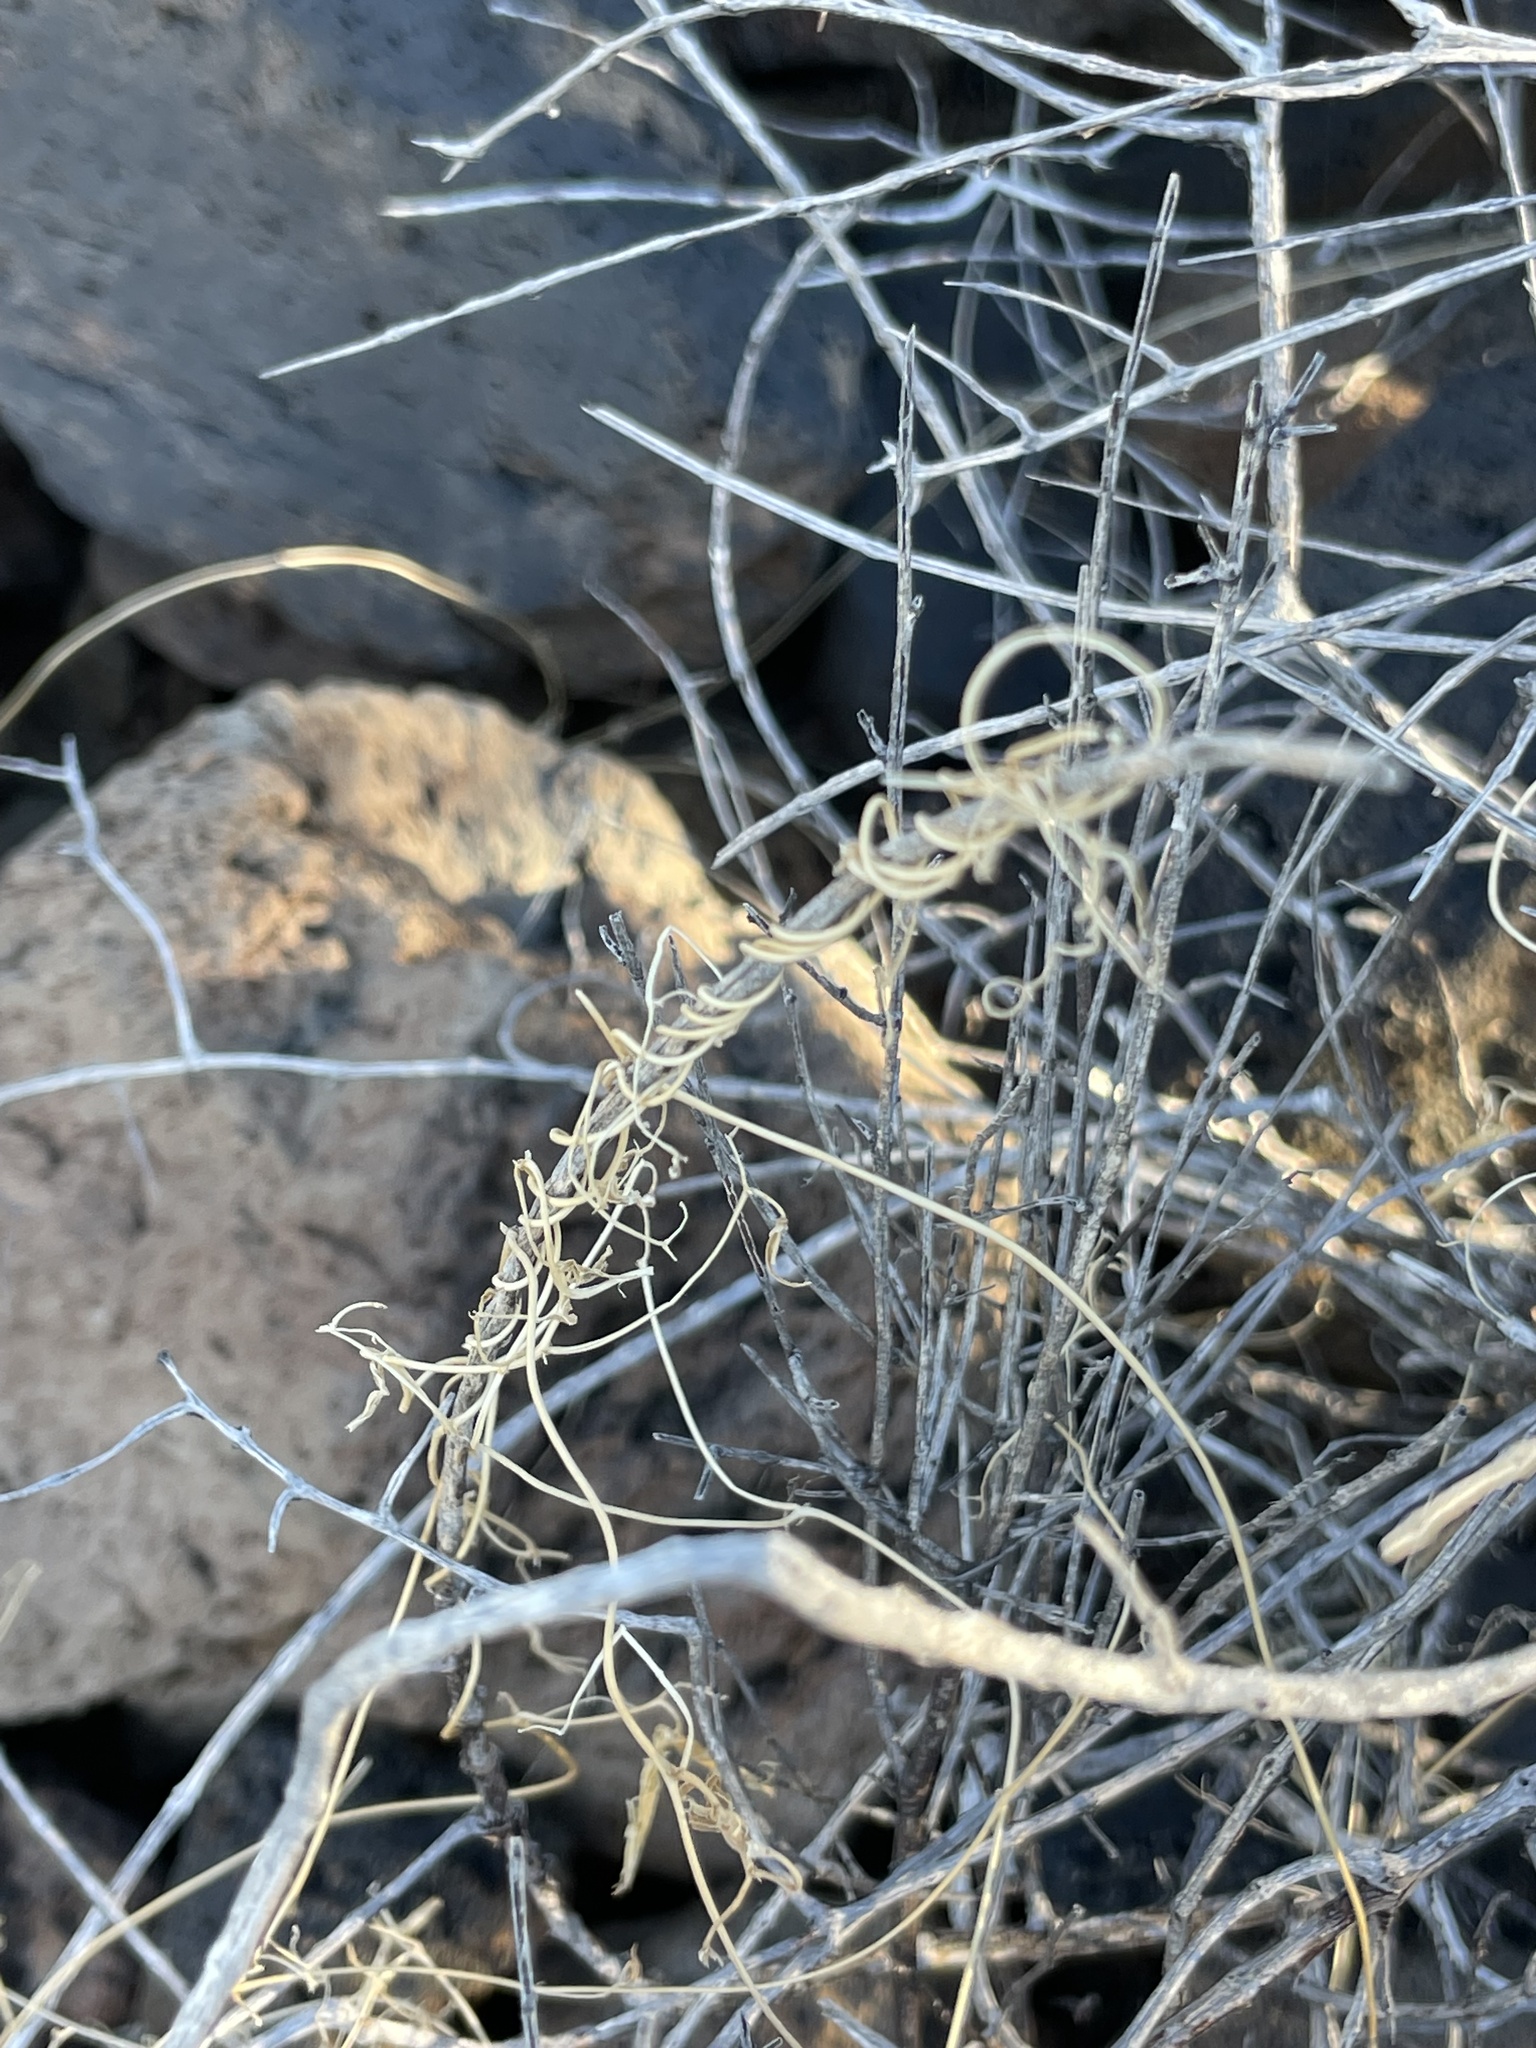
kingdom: Plantae
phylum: Tracheophyta
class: Magnoliopsida
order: Gentianales
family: Apocynaceae
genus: Funastrum
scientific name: Funastrum heterophyllum
